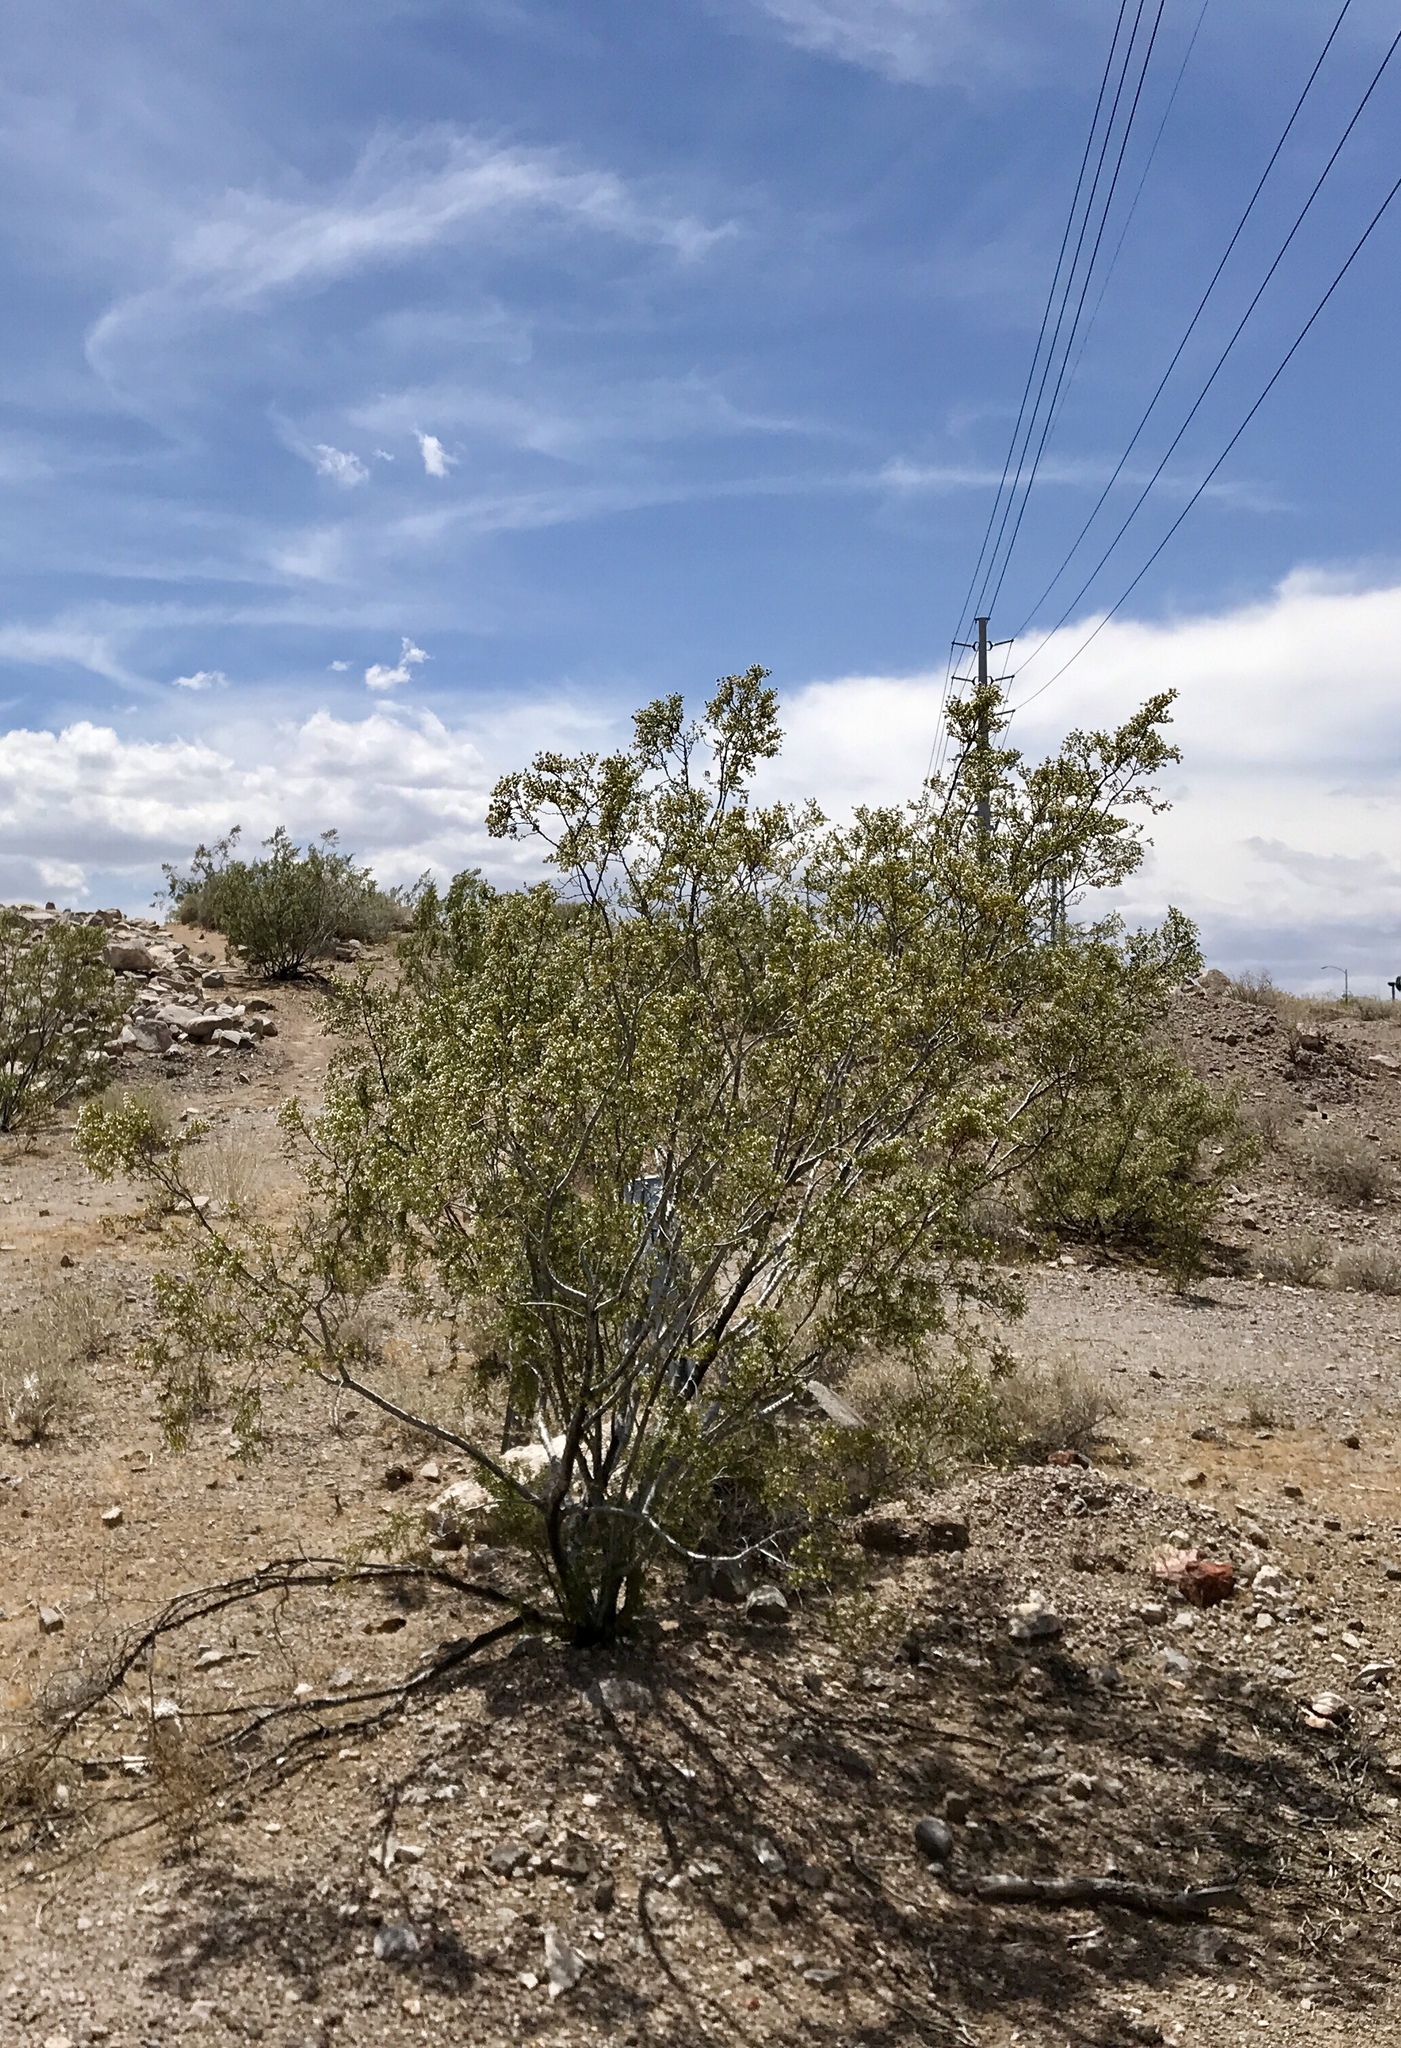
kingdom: Plantae
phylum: Tracheophyta
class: Magnoliopsida
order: Zygophyllales
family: Zygophyllaceae
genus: Larrea
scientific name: Larrea tridentata
